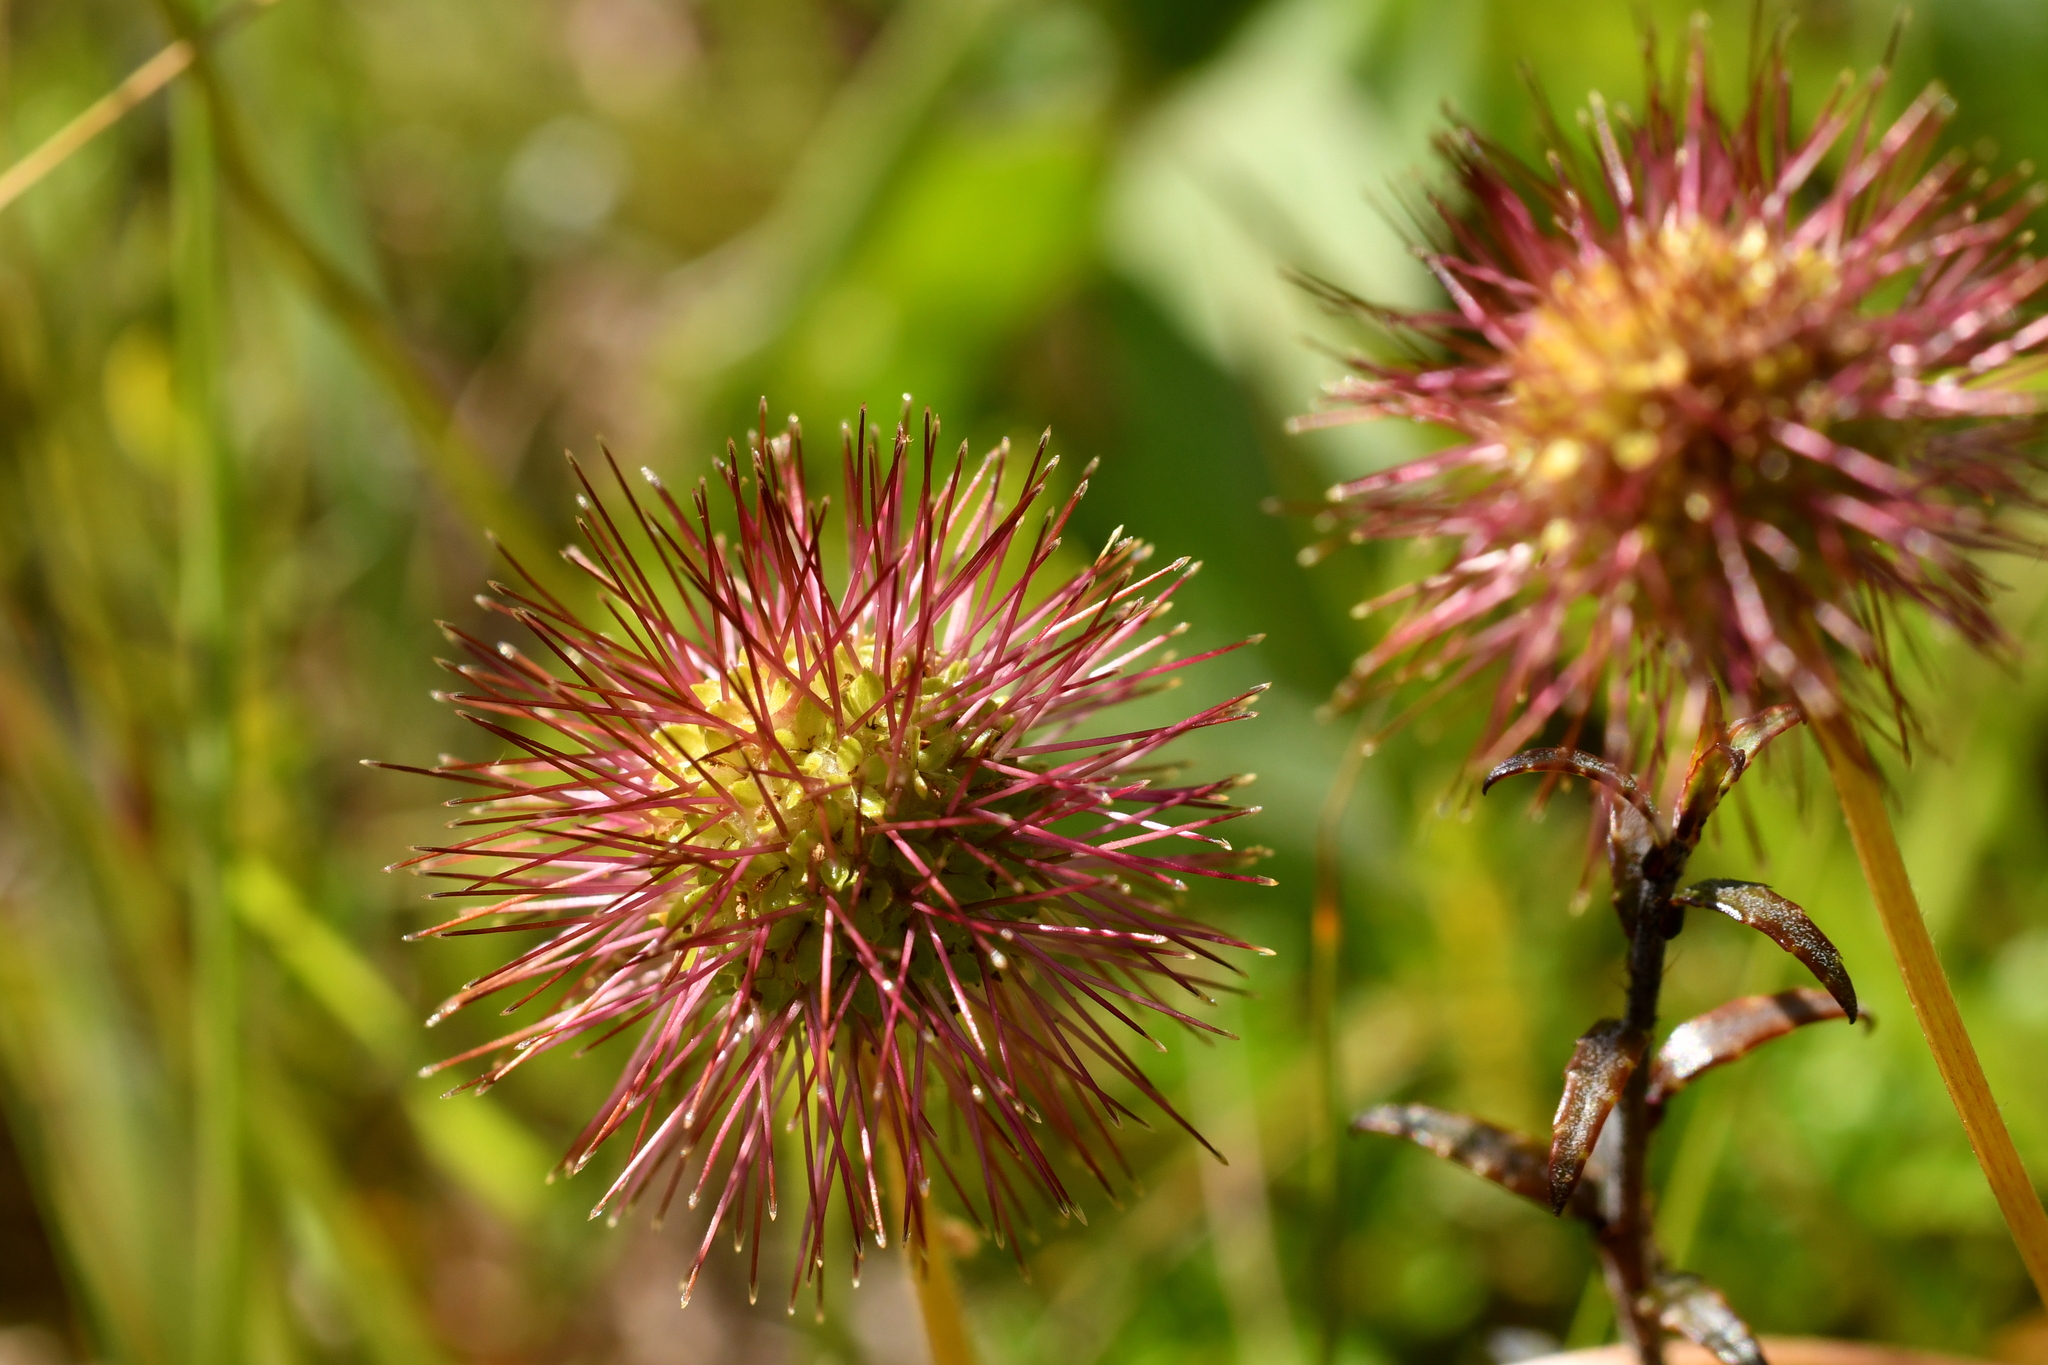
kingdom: Plantae
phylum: Tracheophyta
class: Magnoliopsida
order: Rosales
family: Rosaceae
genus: Acaena
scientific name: Acaena novae-zelandiae
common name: Pirri-pirri-bur
